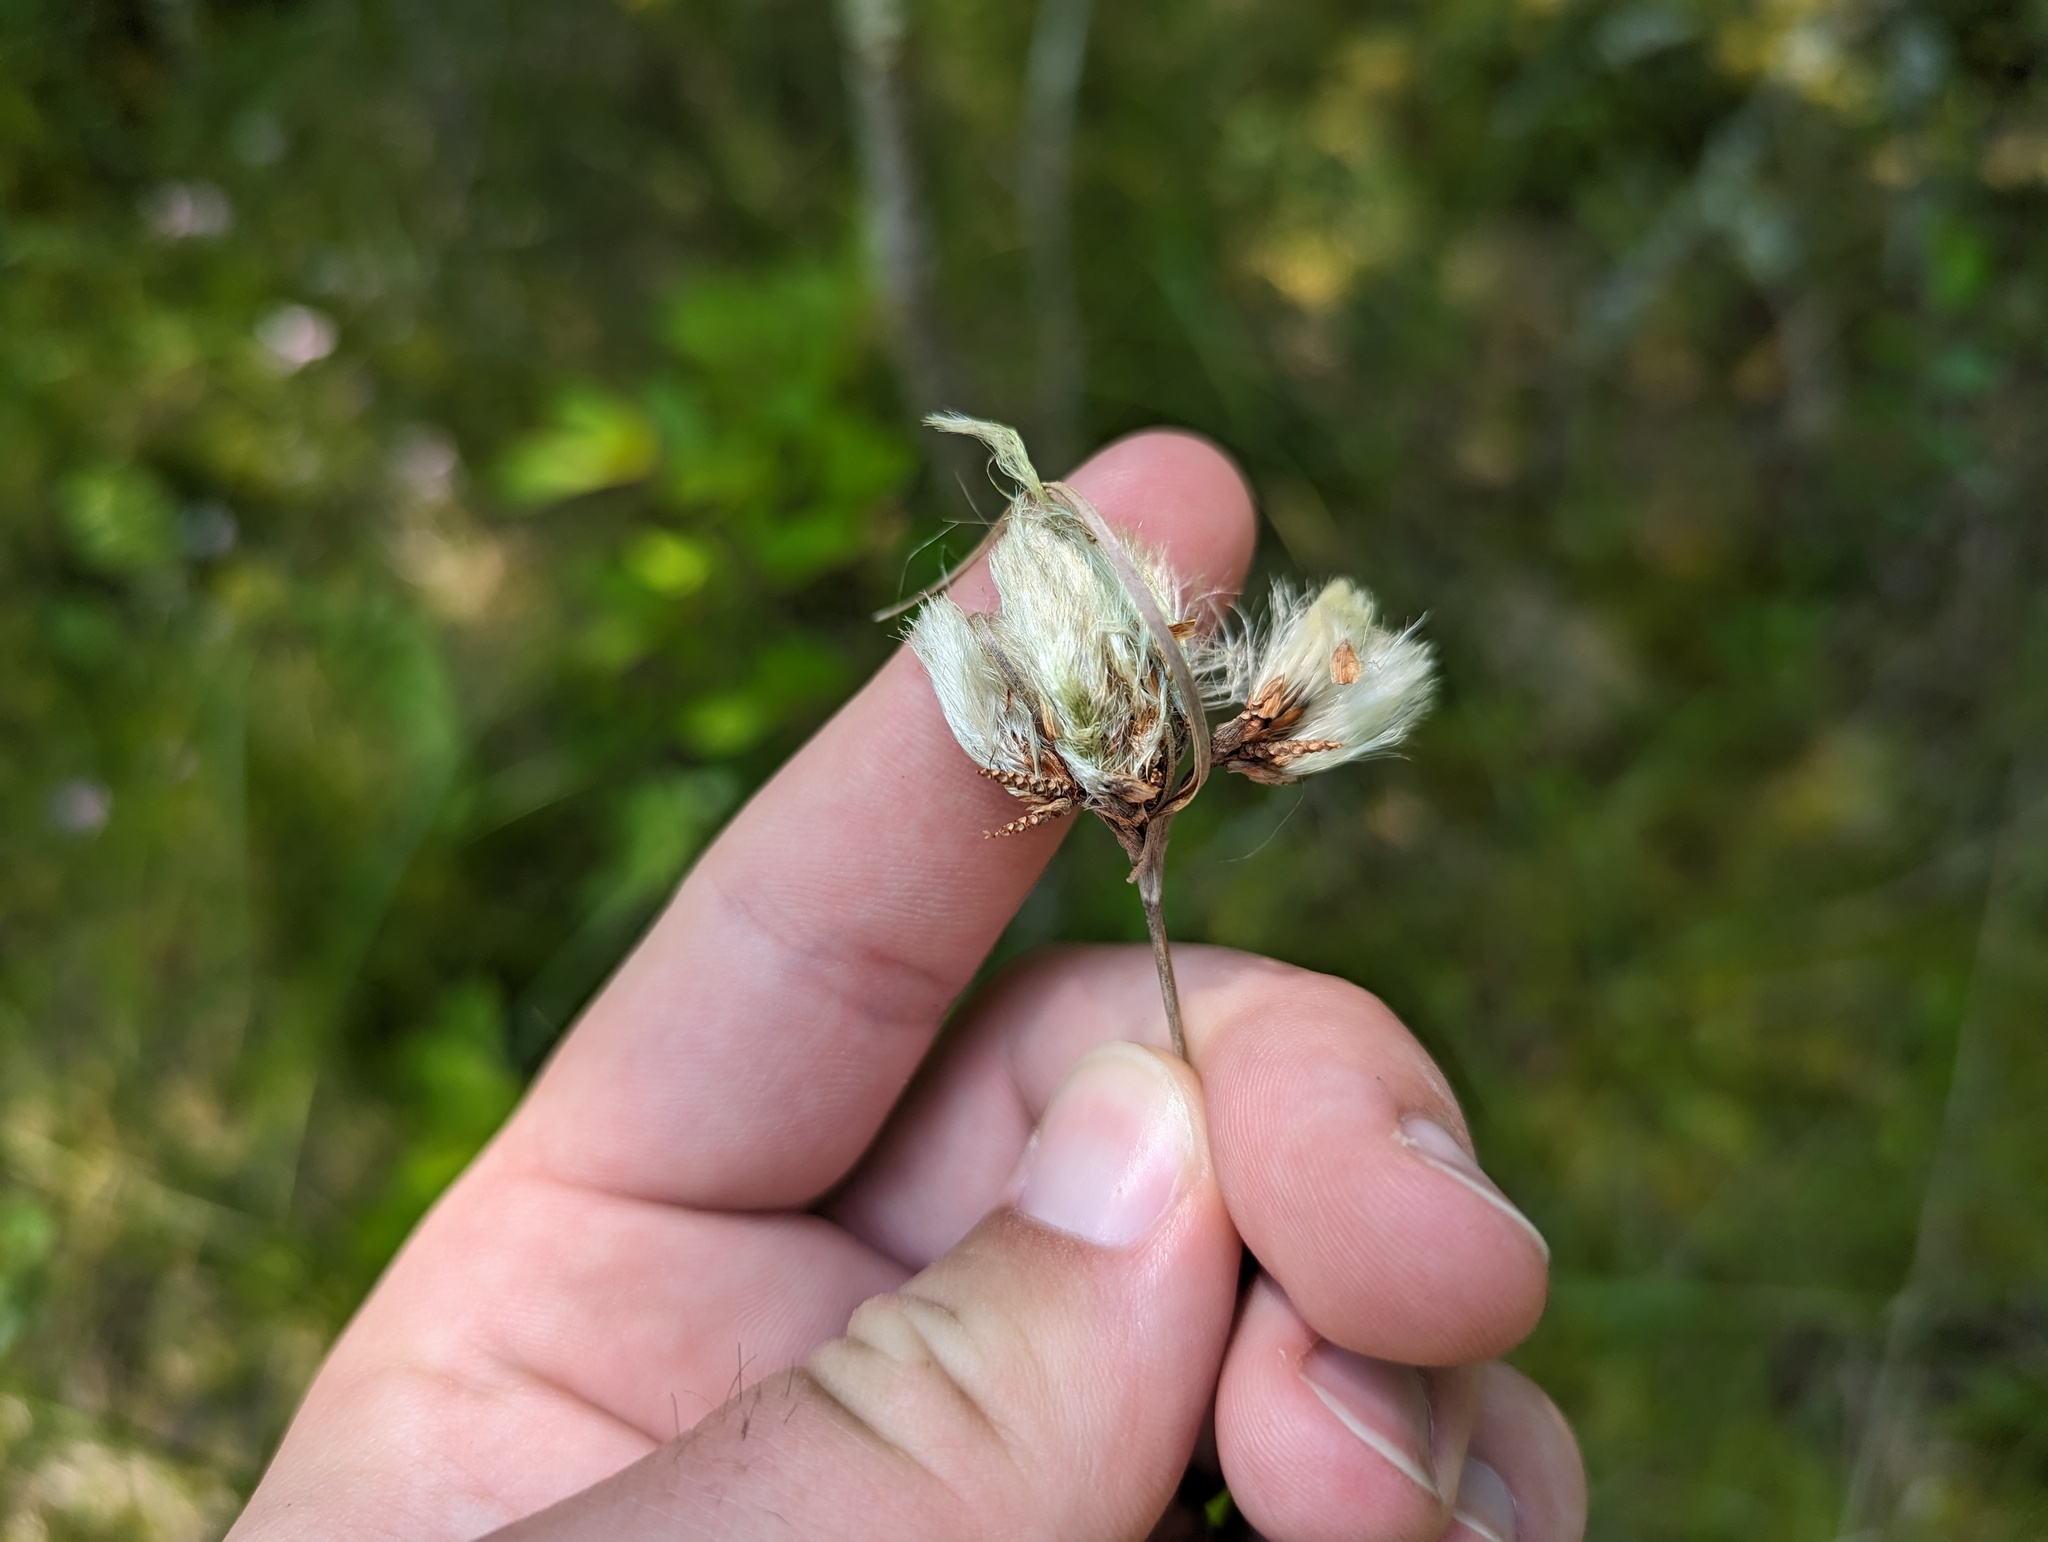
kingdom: Plantae
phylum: Tracheophyta
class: Liliopsida
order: Poales
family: Cyperaceae
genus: Eriophorum
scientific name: Eriophorum virginicum
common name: Tawny cottongrass
